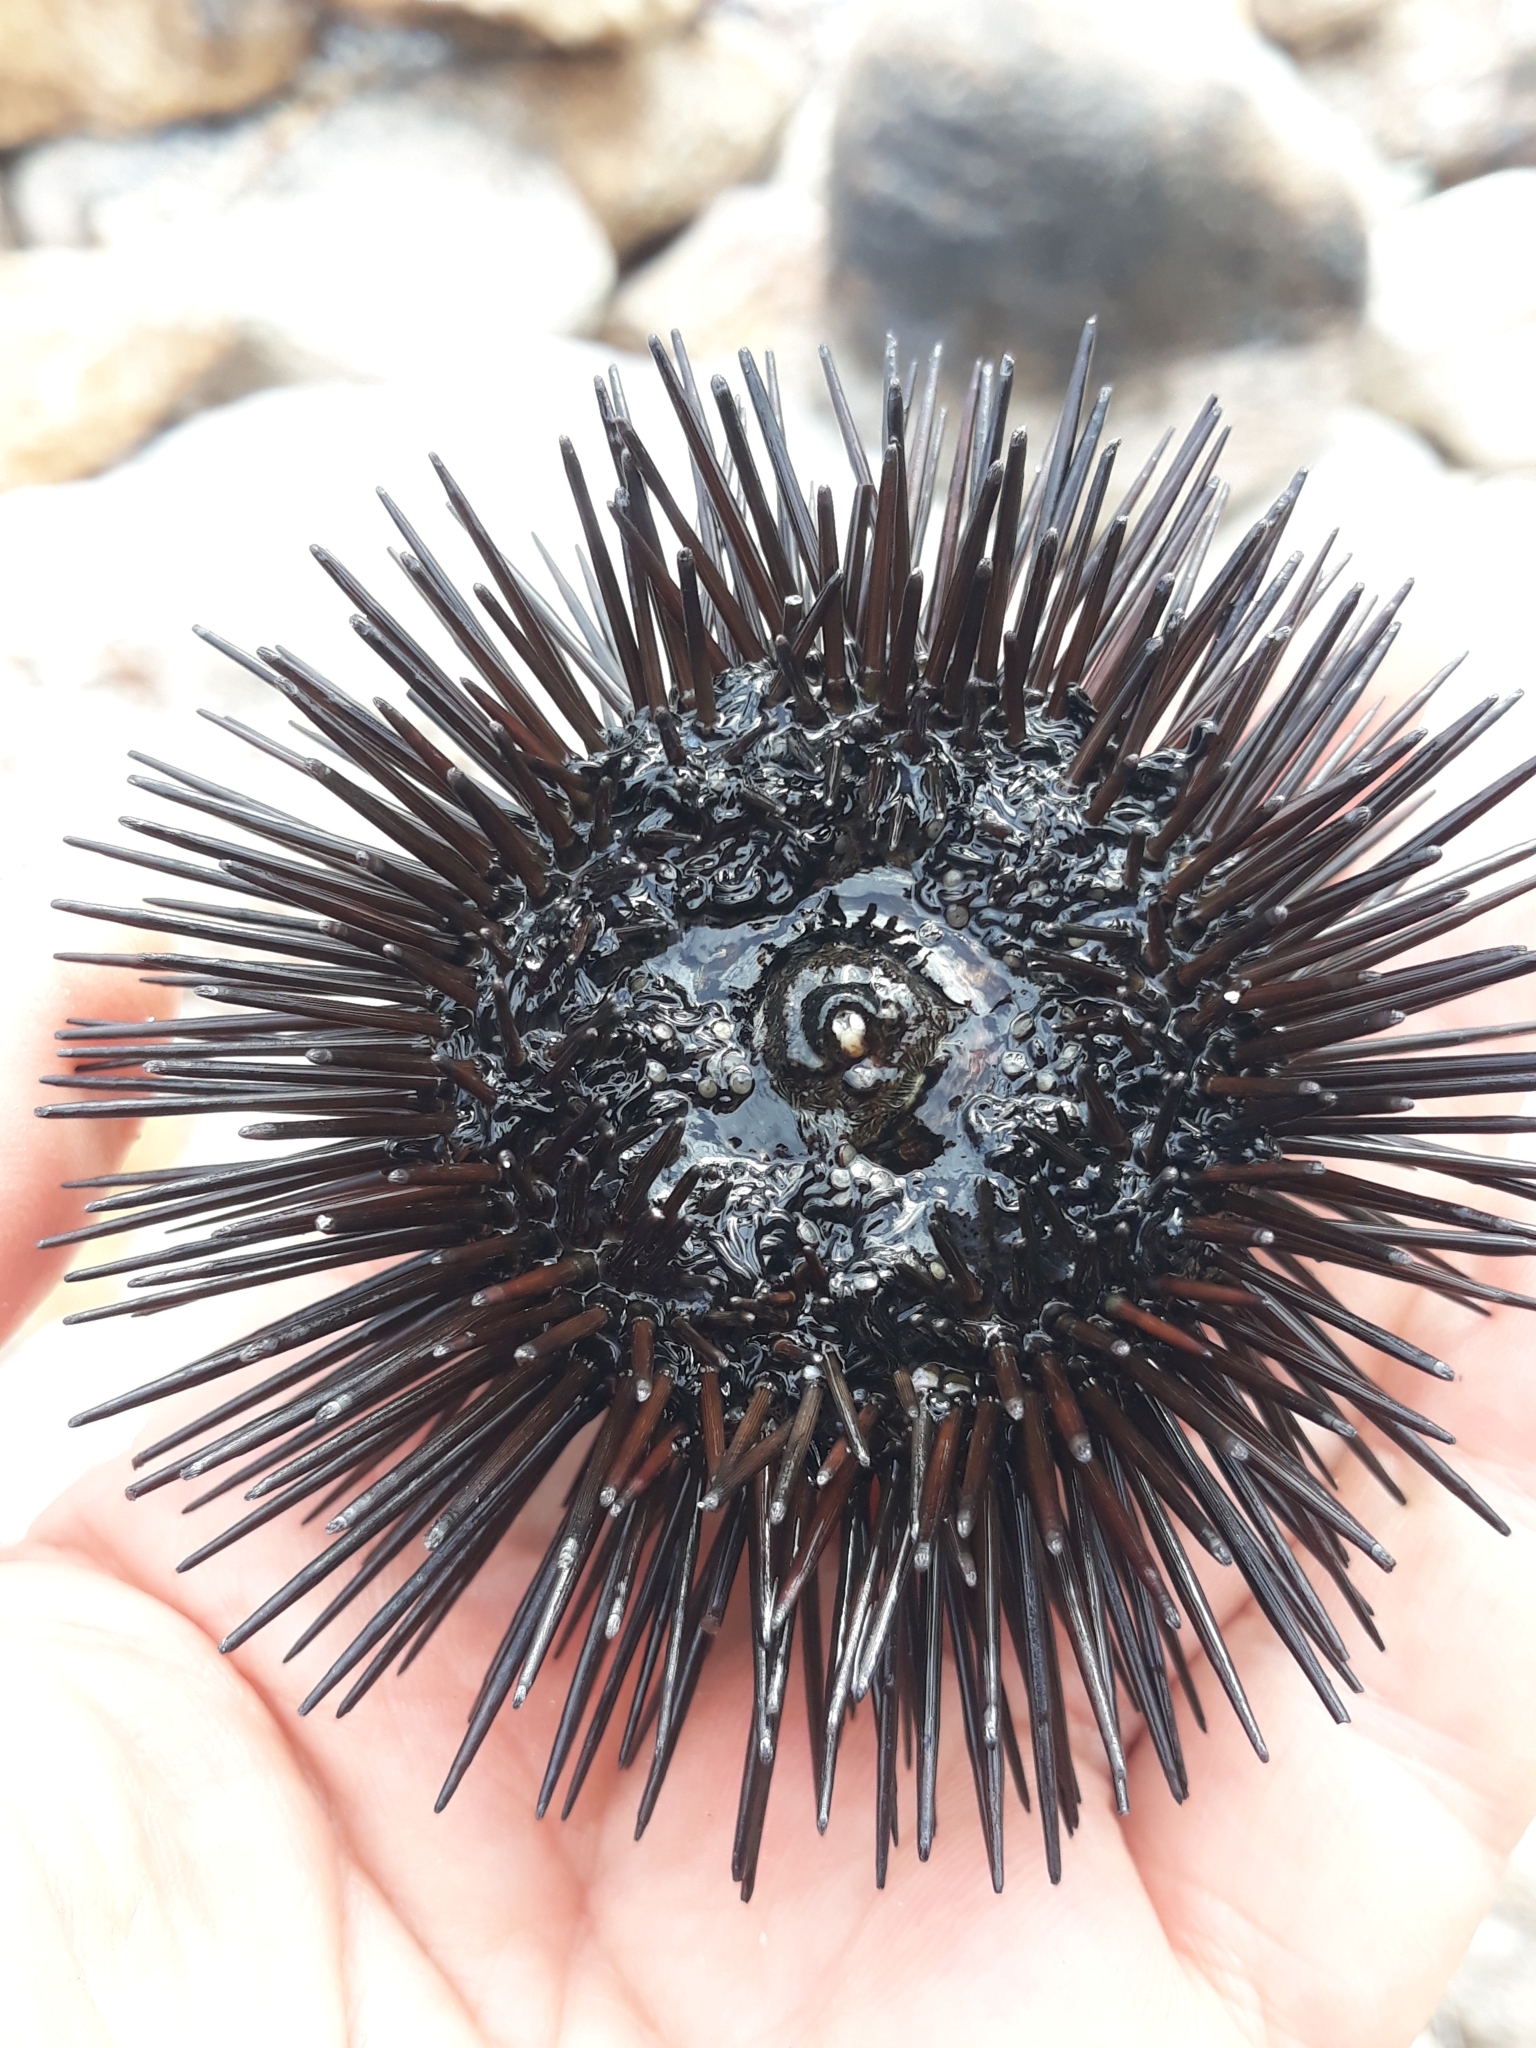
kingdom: Animalia
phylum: Echinodermata
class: Echinoidea
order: Arbacioida
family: Arbaciidae
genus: Arbacia
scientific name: Arbacia lixula
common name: Black sea urchin
